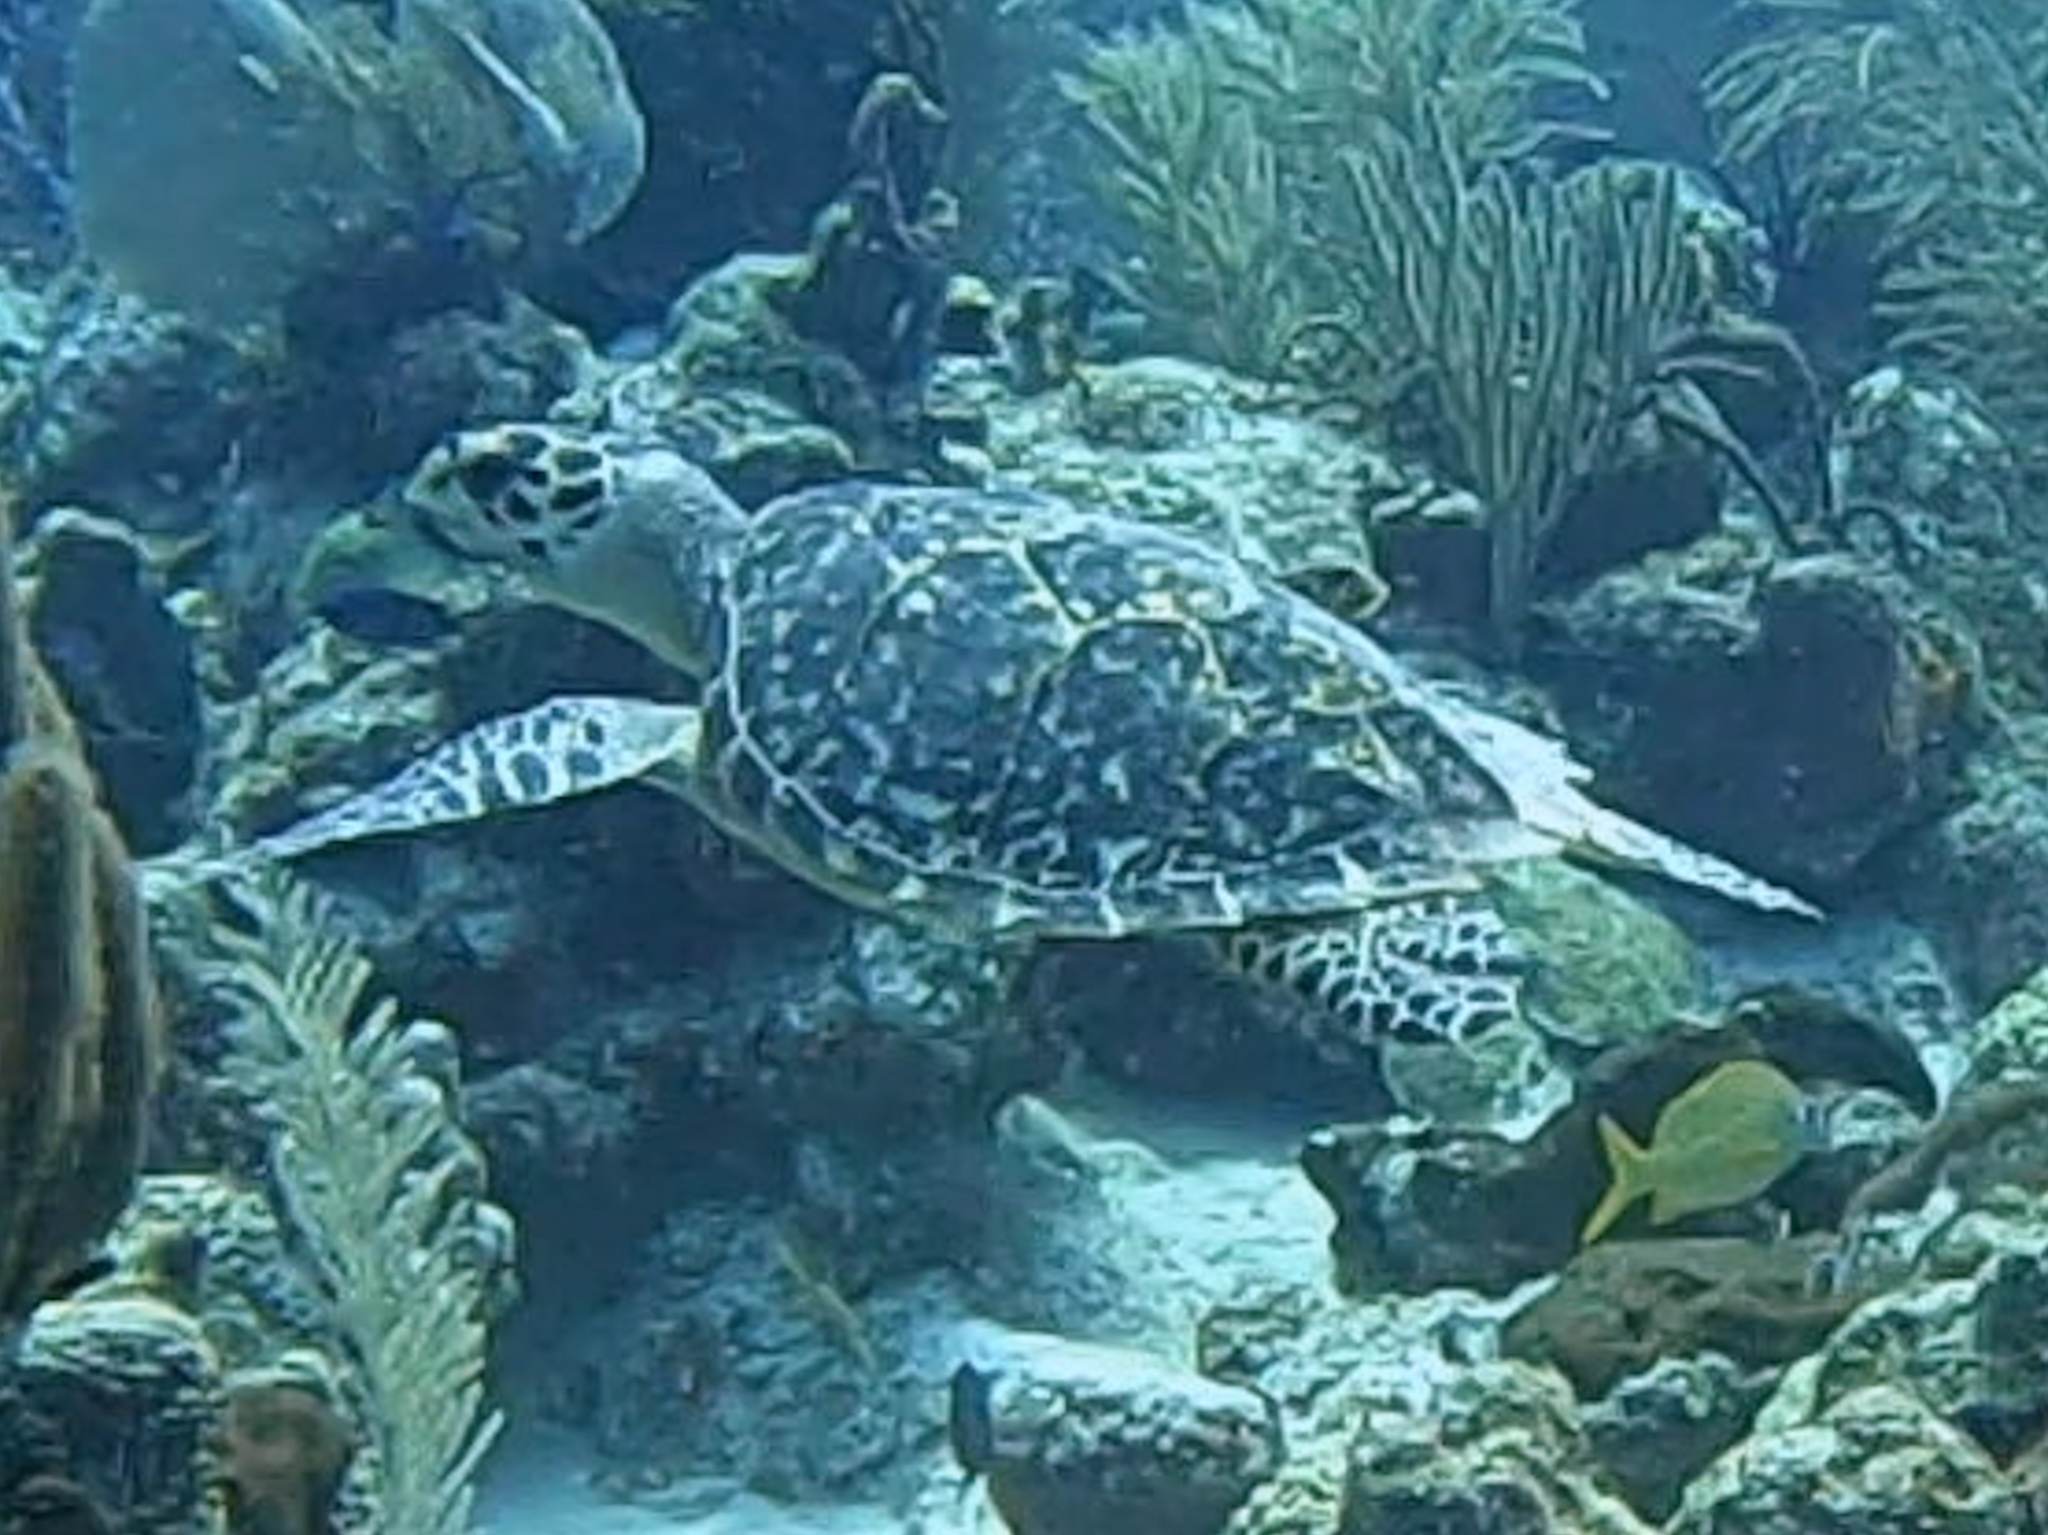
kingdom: Animalia
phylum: Chordata
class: Testudines
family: Cheloniidae
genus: Eretmochelys
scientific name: Eretmochelys imbricata
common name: Hawksbill turtle
